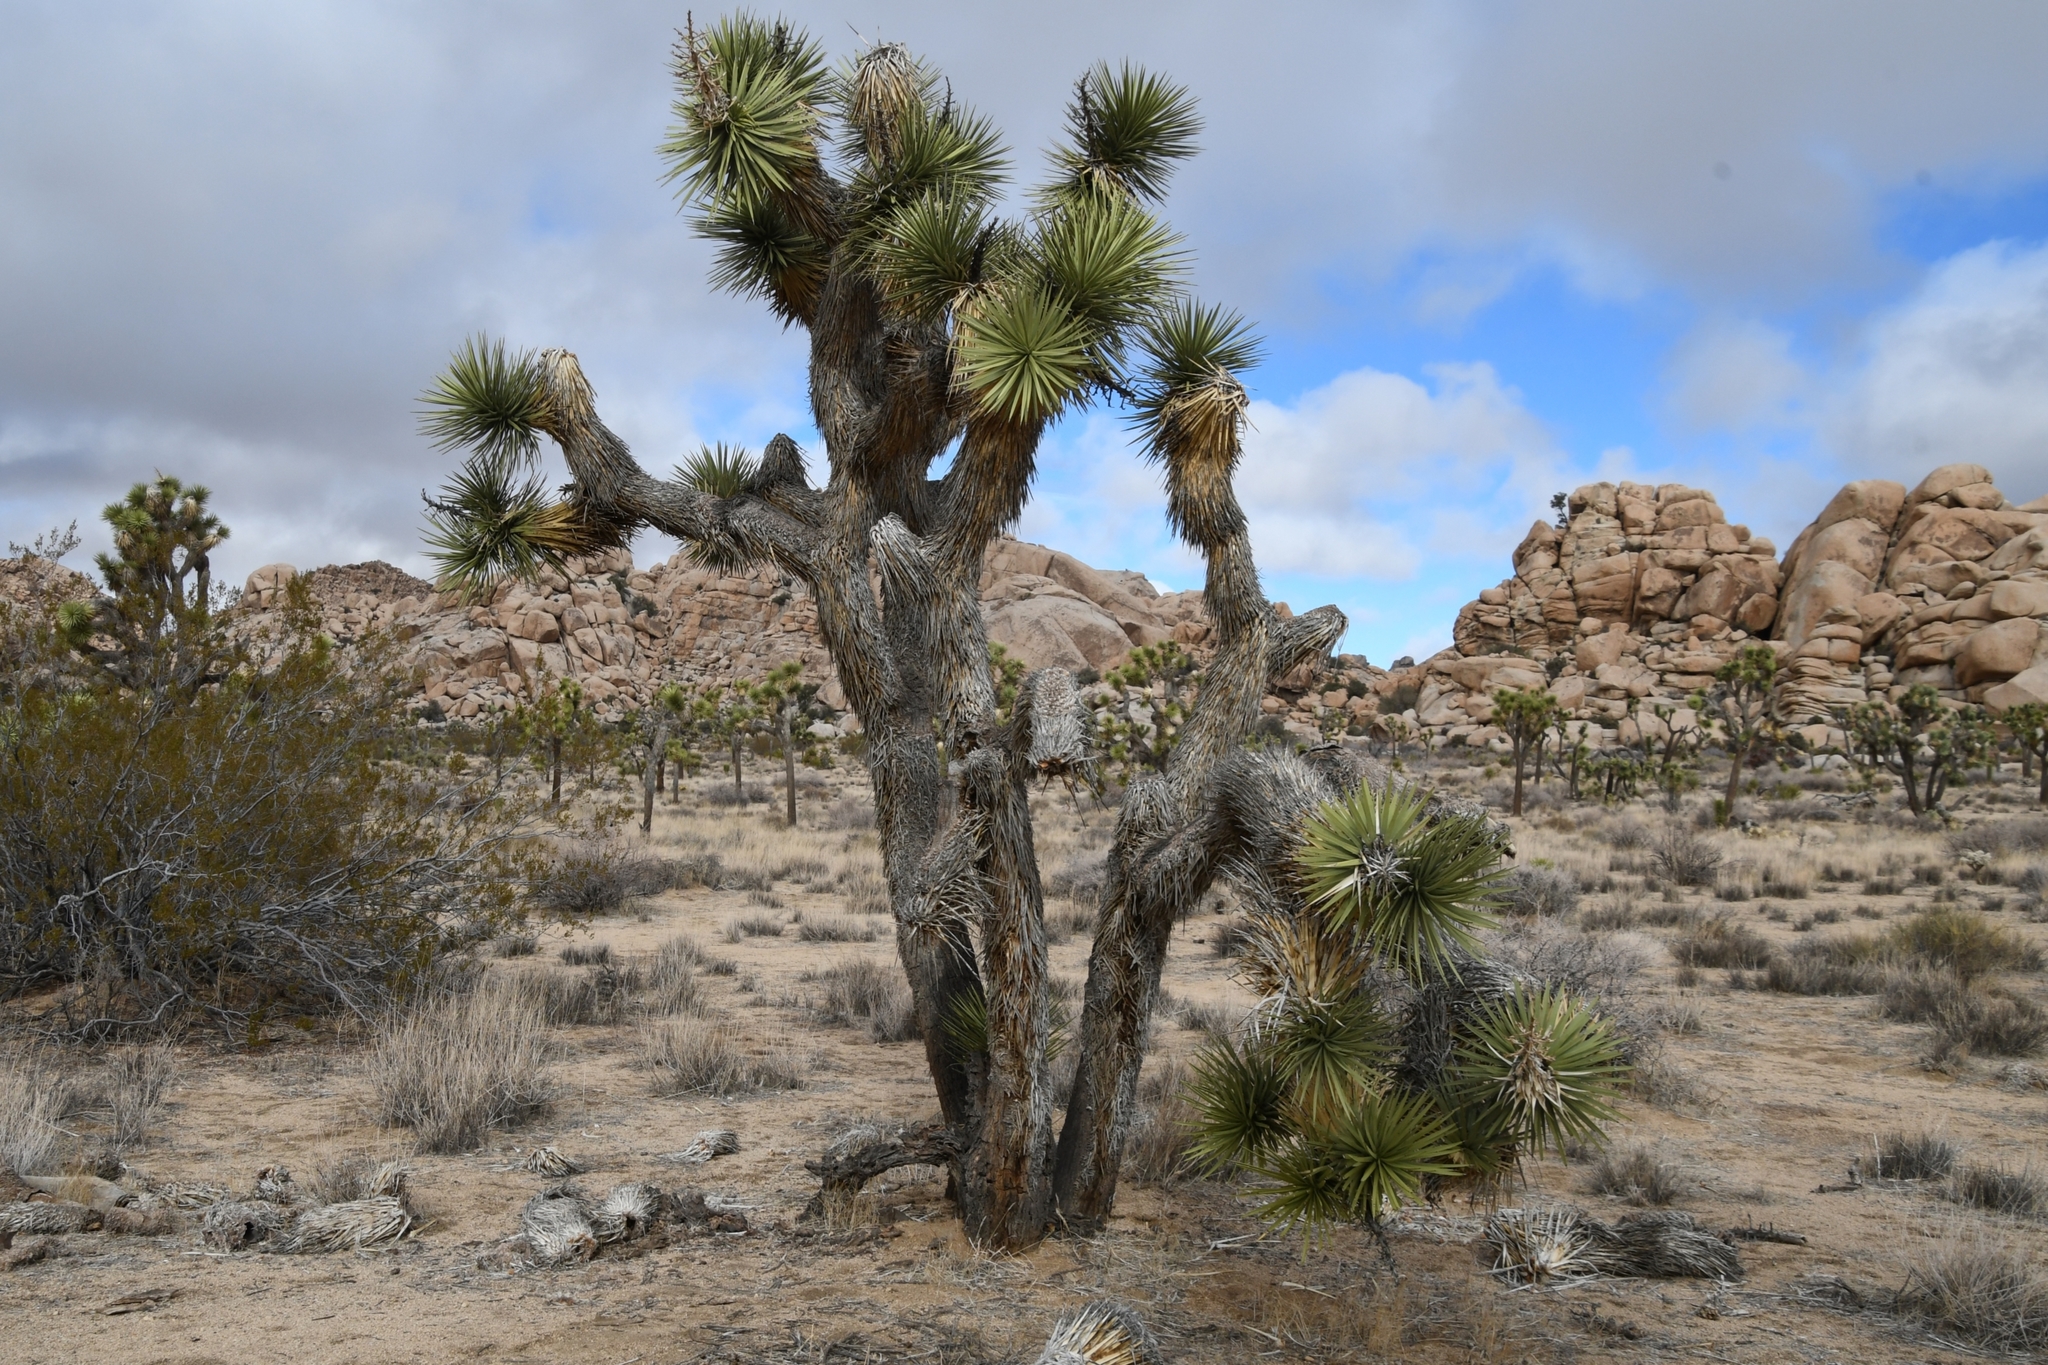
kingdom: Plantae
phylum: Tracheophyta
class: Liliopsida
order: Asparagales
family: Asparagaceae
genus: Yucca
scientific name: Yucca brevifolia
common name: Joshua tree
